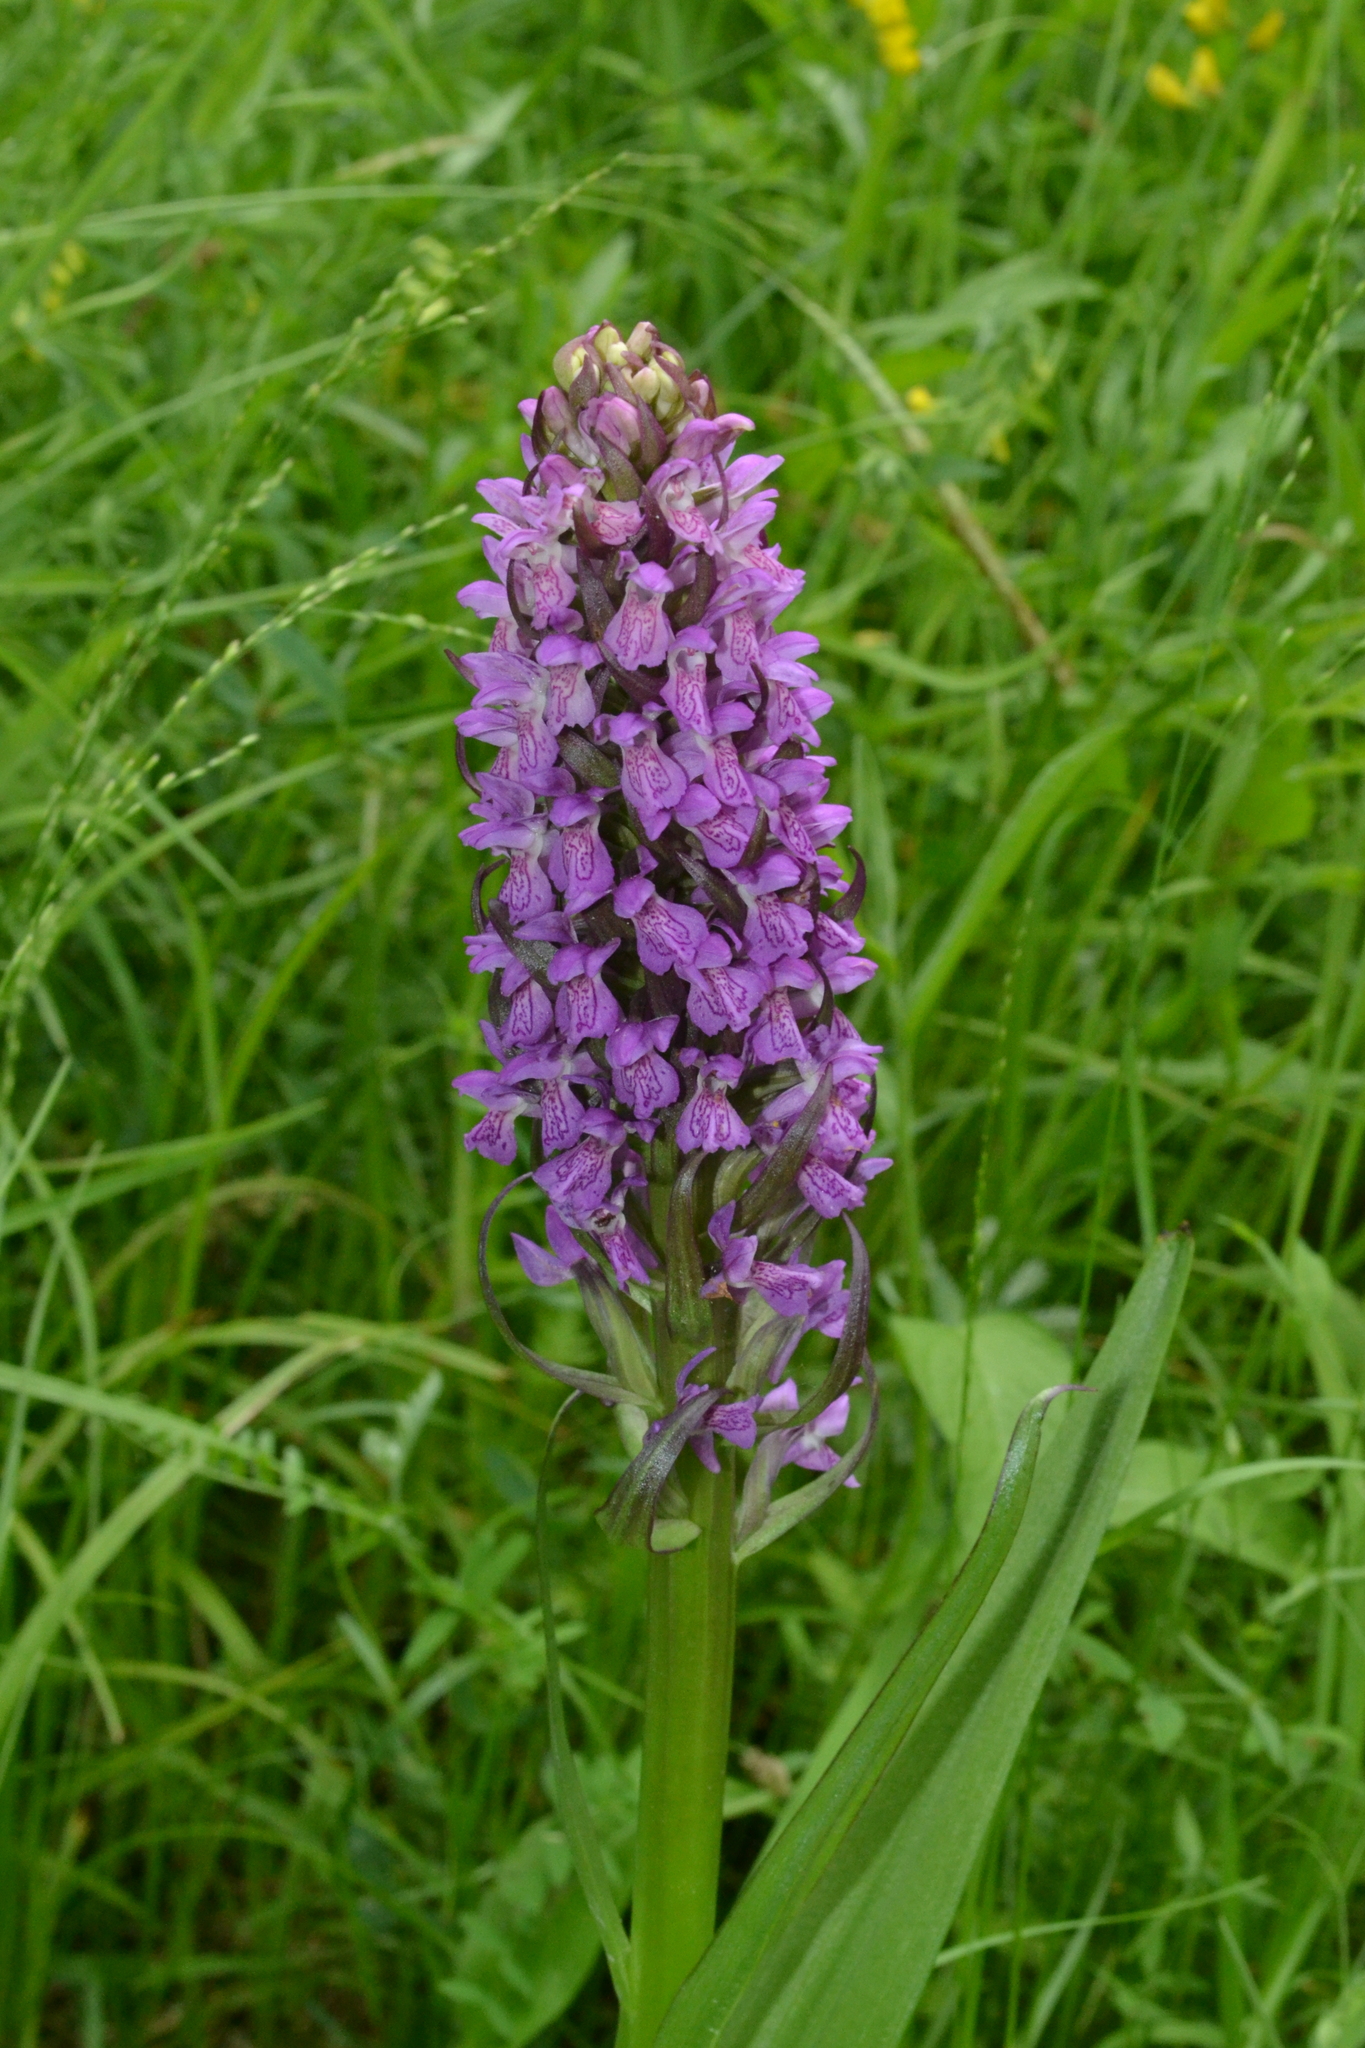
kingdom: Plantae
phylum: Tracheophyta
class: Liliopsida
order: Asparagales
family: Orchidaceae
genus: Dactylorhiza
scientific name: Dactylorhiza incarnata
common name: Early marsh-orchid
